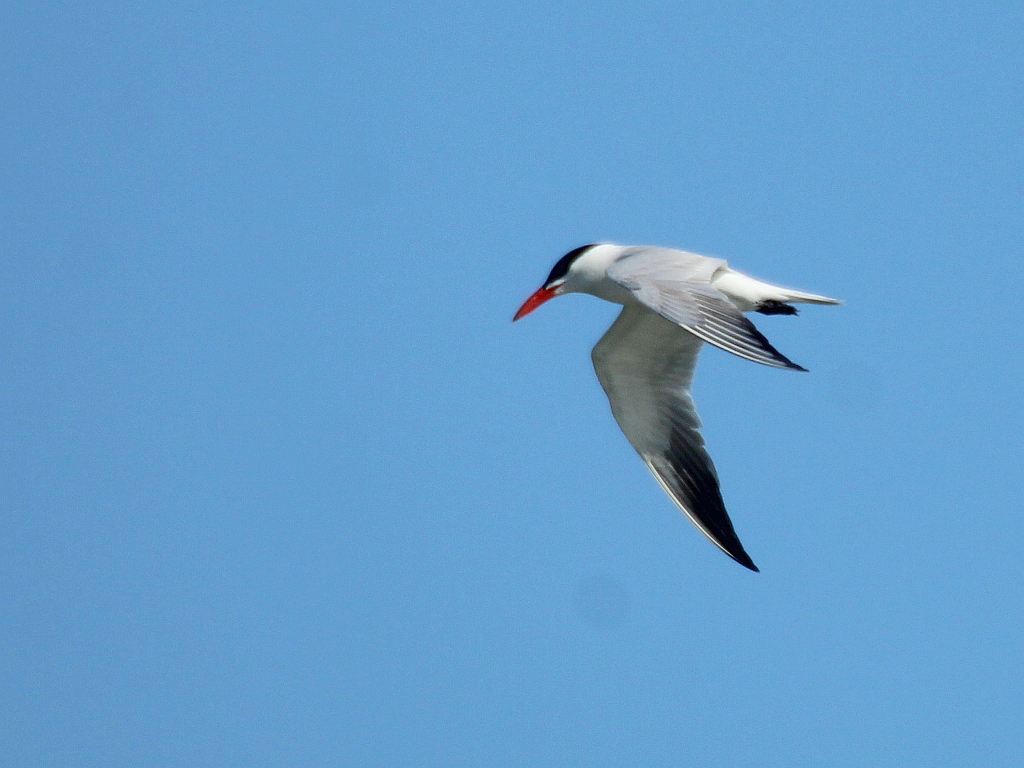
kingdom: Animalia
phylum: Chordata
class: Aves
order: Charadriiformes
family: Laridae
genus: Hydroprogne
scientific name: Hydroprogne caspia
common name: Caspian tern
